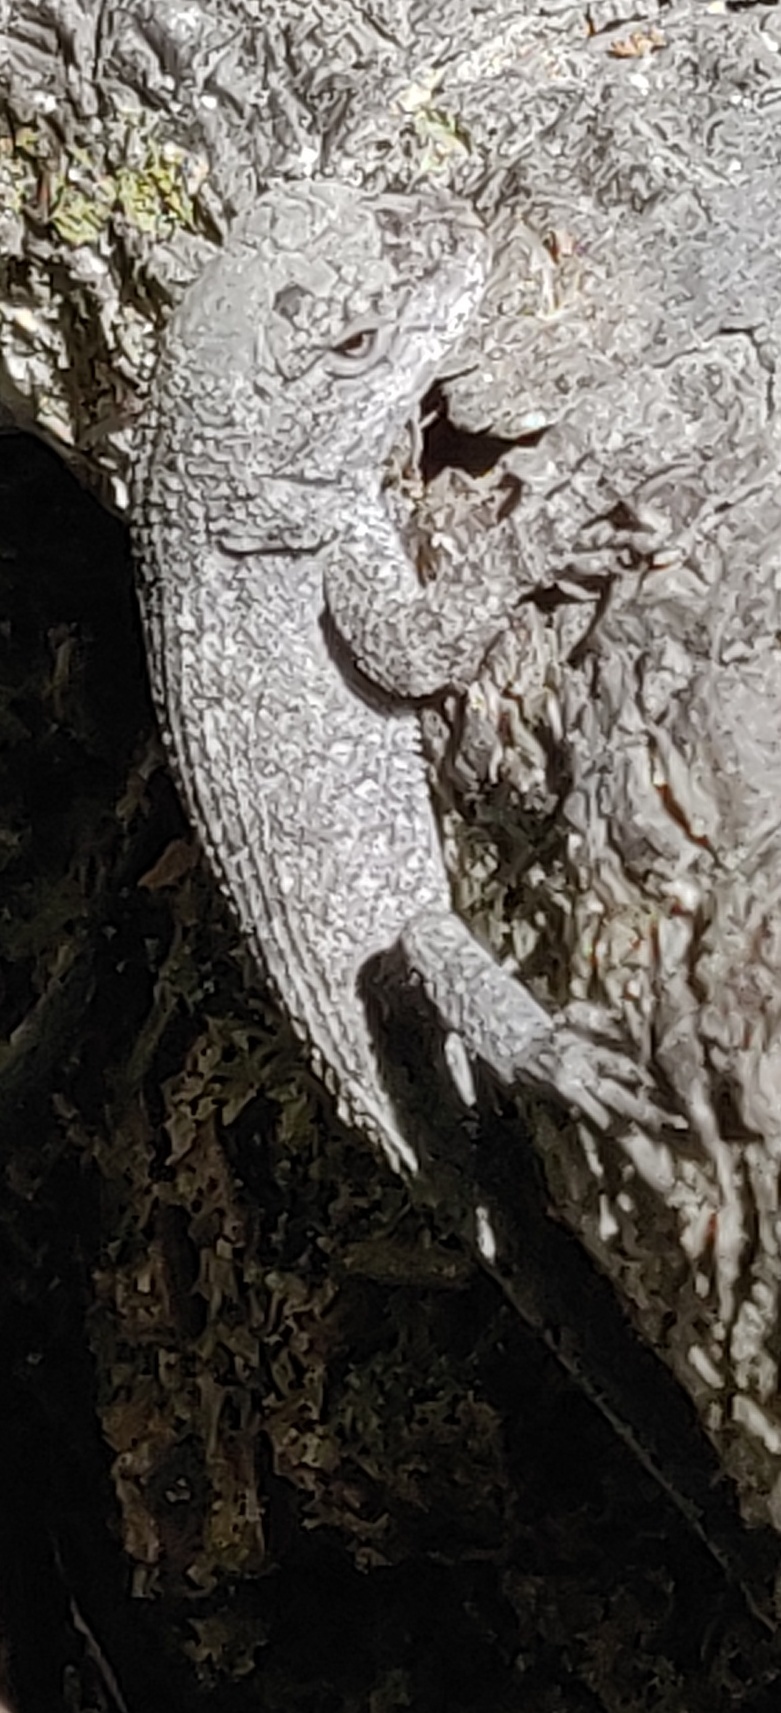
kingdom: Animalia
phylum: Chordata
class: Squamata
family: Phrynosomatidae
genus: Sceloporus
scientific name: Sceloporus undulatus
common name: Eastern fence lizard
